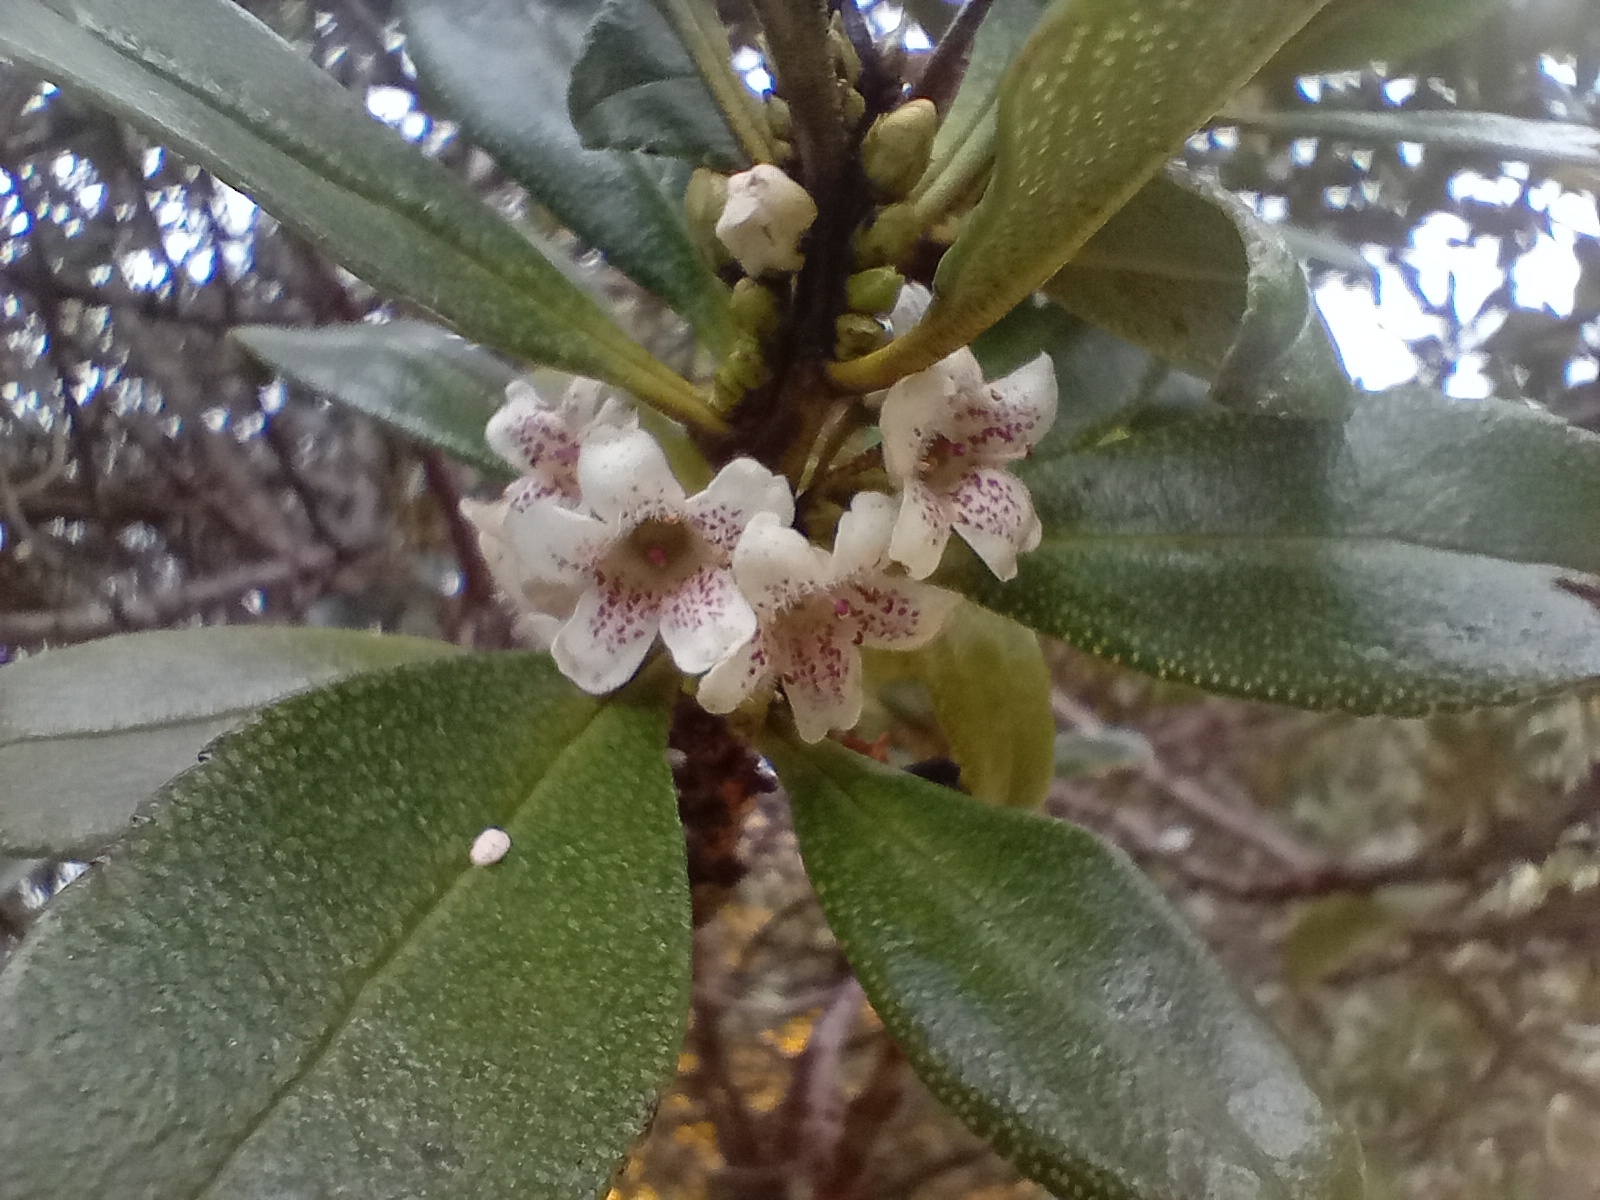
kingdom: Plantae
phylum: Tracheophyta
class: Magnoliopsida
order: Lamiales
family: Scrophulariaceae
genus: Myoporum
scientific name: Myoporum laetum
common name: Ngaio tree
